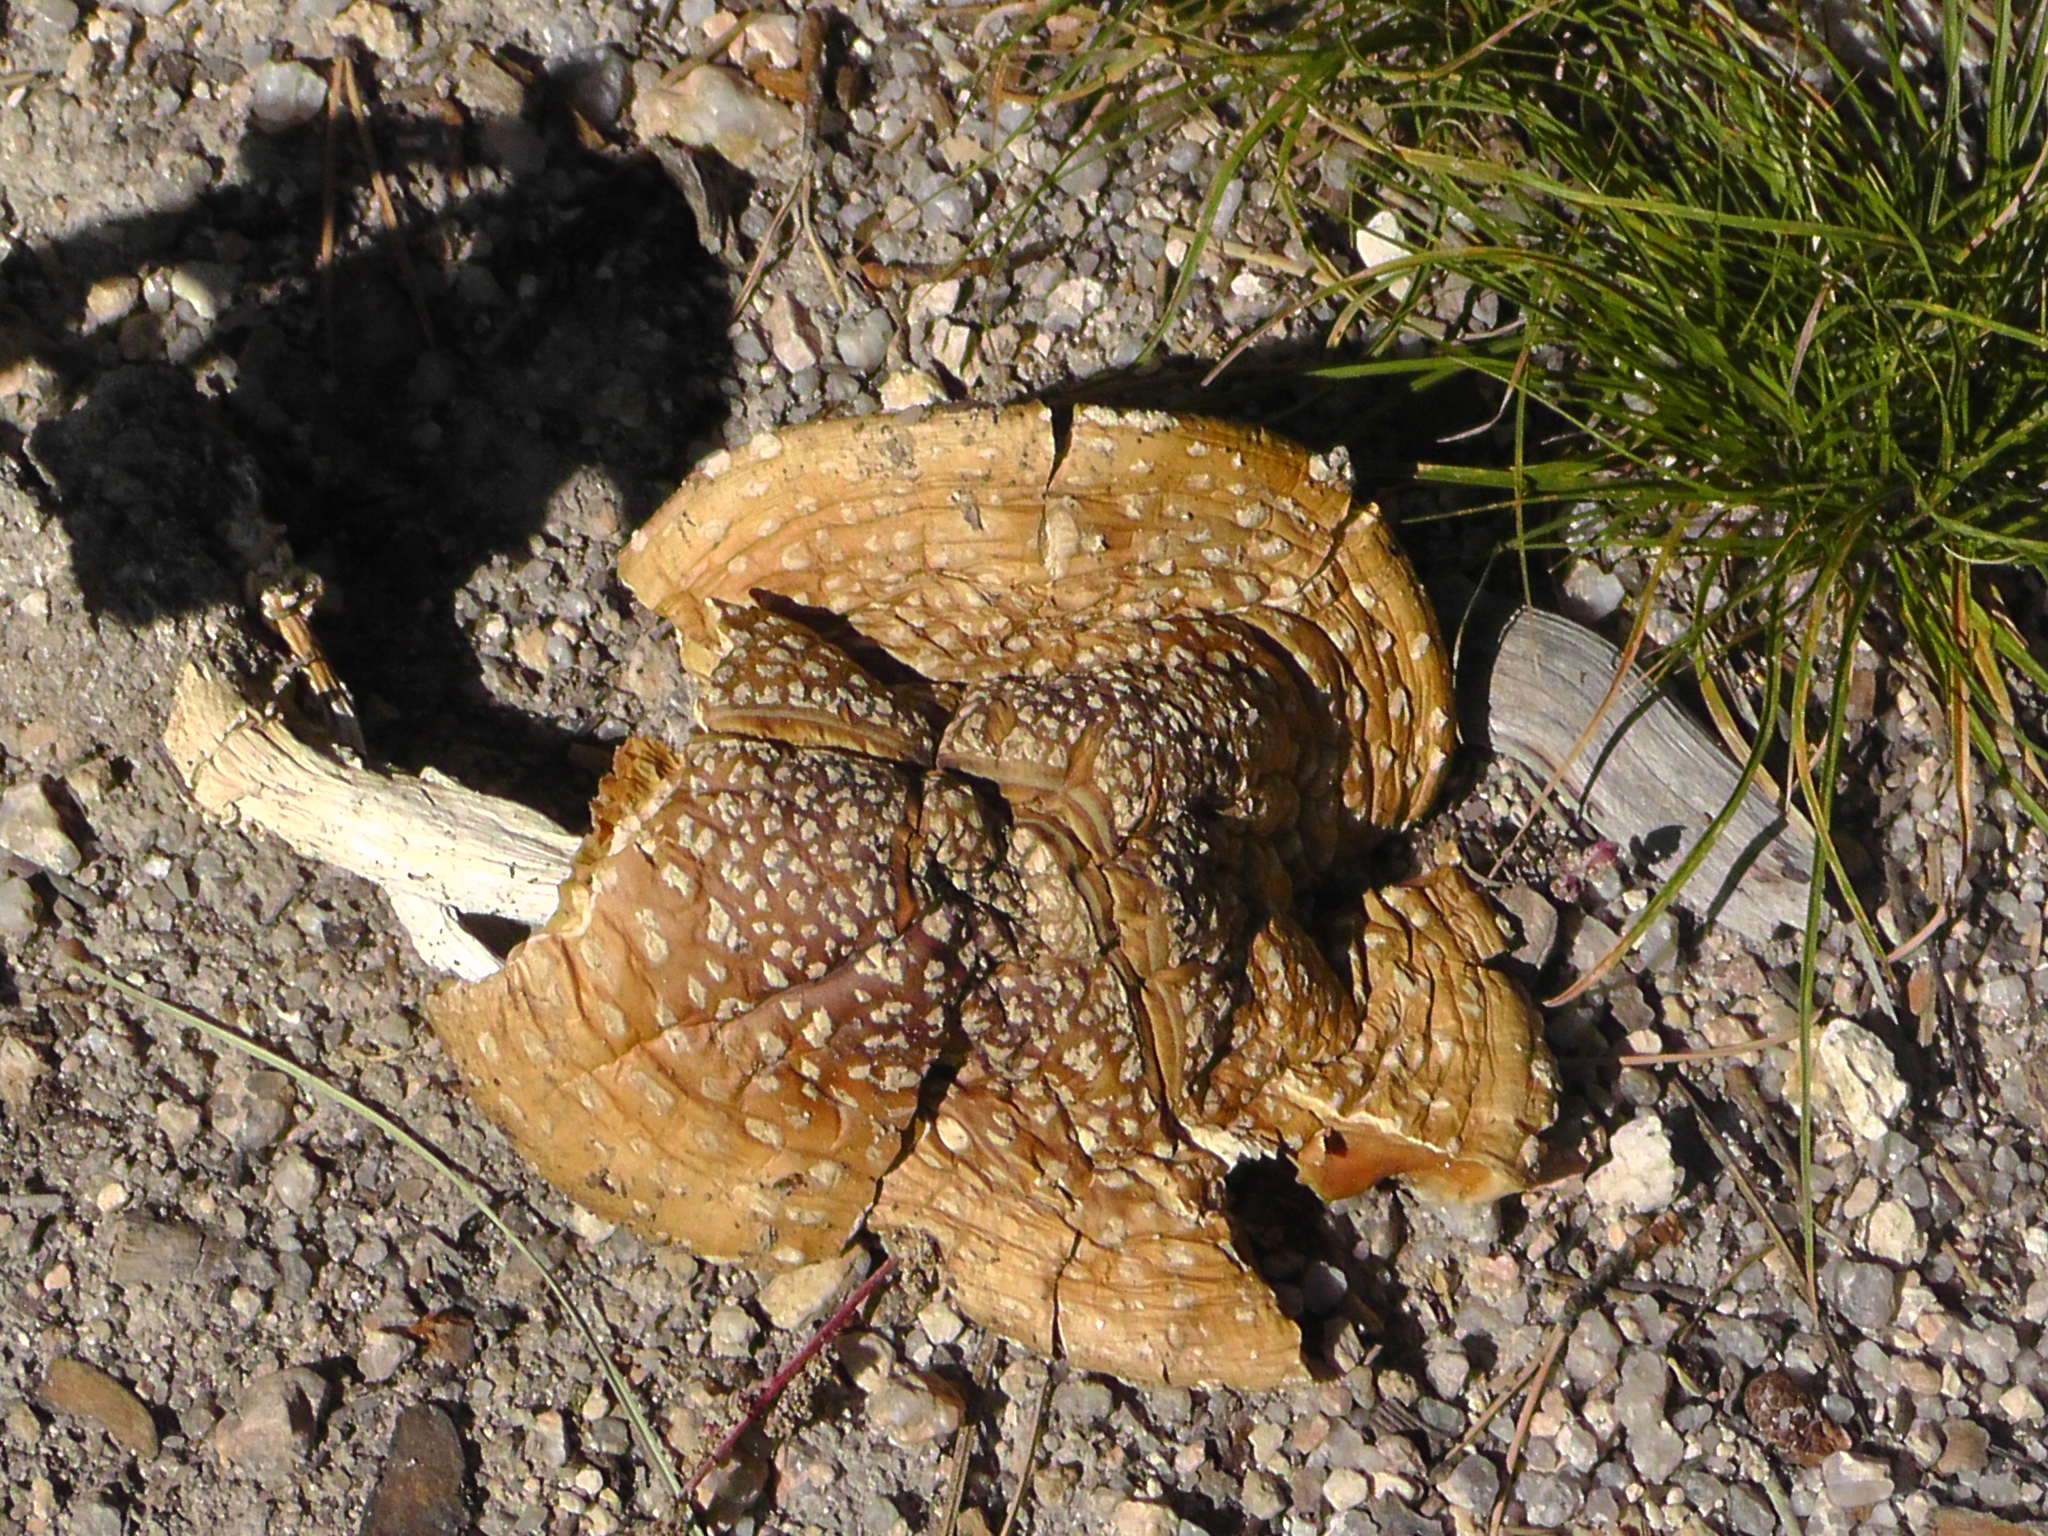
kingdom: Fungi
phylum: Basidiomycota
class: Agaricomycetes
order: Agaricales
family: Amanitaceae
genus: Amanita
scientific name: Amanita muscaria
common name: Fly agaric
